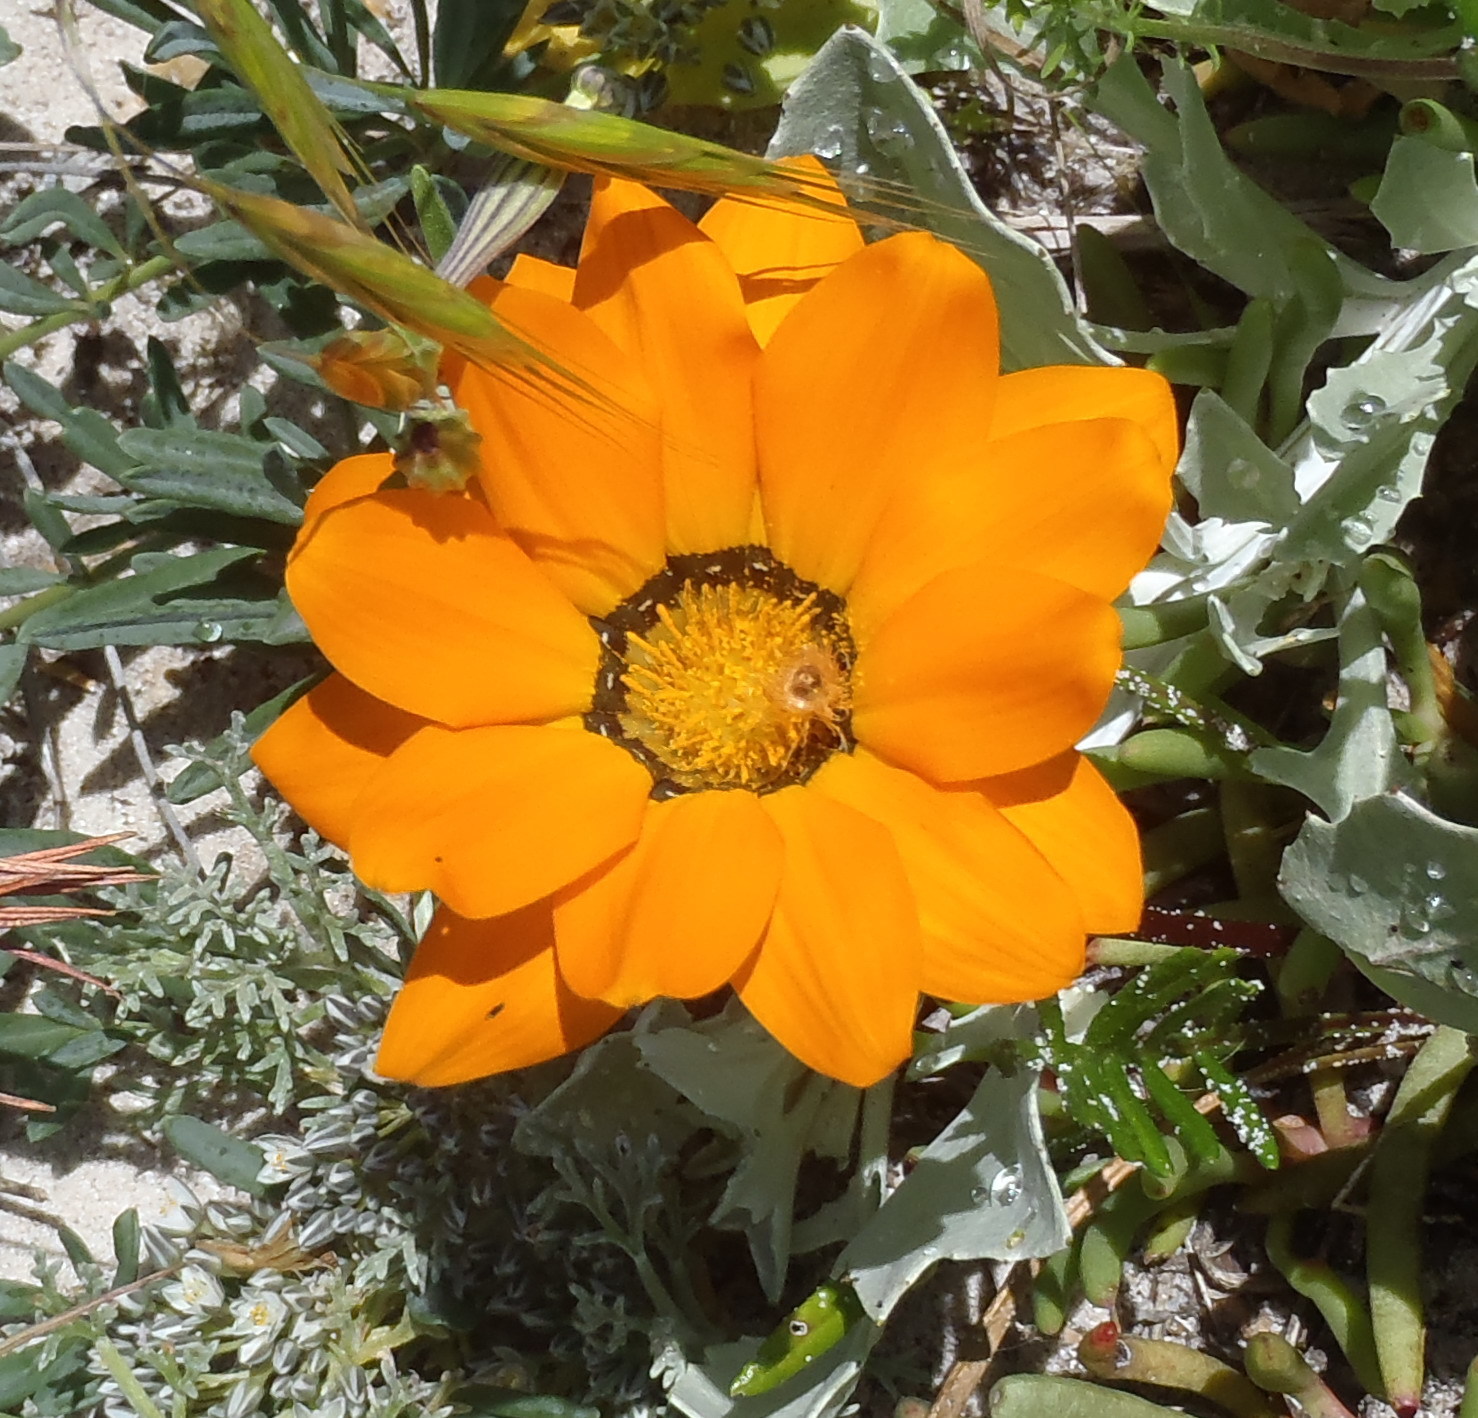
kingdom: Plantae
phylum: Tracheophyta
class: Magnoliopsida
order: Asterales
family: Asteraceae
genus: Gazania
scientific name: Gazania pectinata
